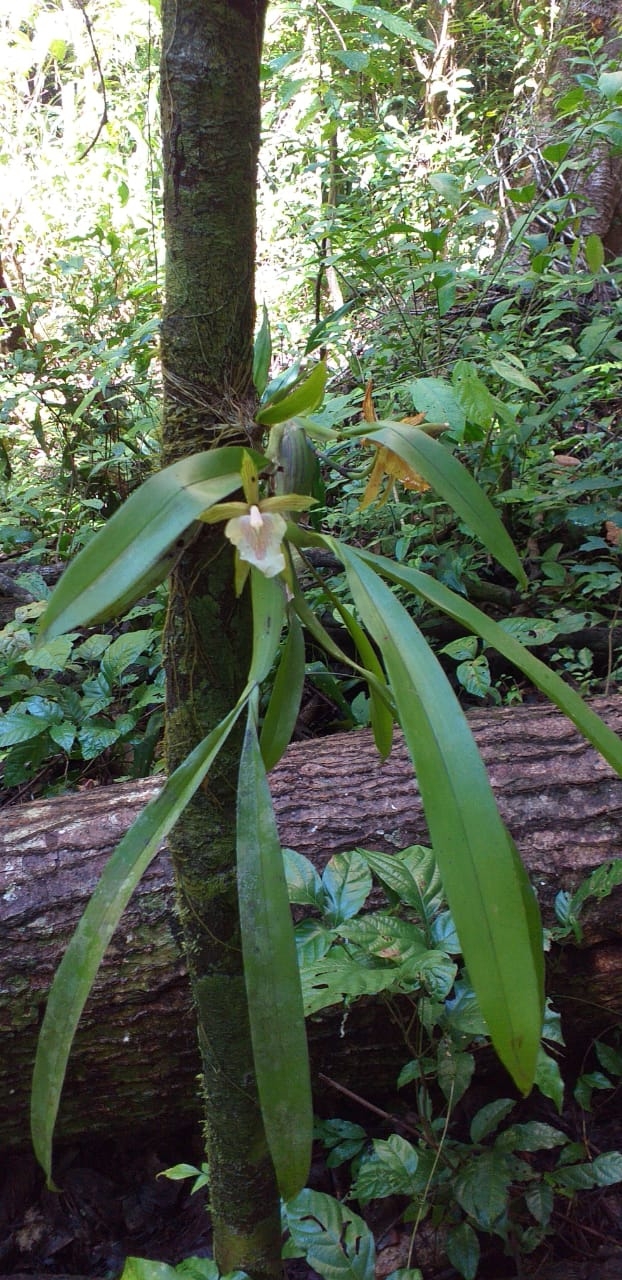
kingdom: Plantae
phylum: Tracheophyta
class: Liliopsida
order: Asparagales
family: Orchidaceae
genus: Aspasia
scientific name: Aspasia principissa
